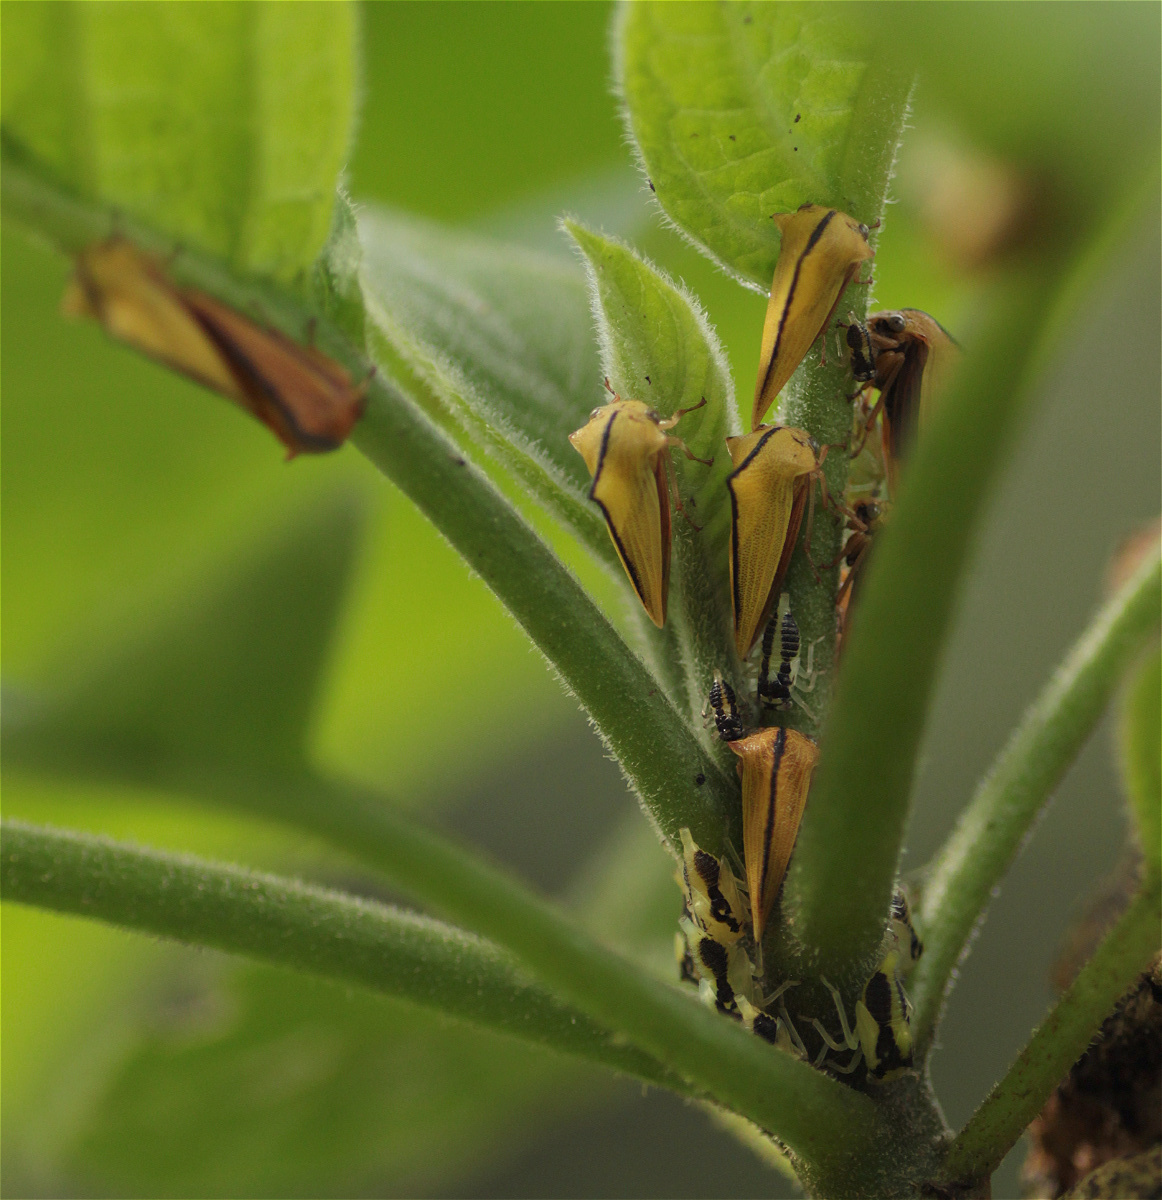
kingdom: Animalia
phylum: Arthropoda
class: Insecta
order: Hemiptera
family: Membracidae
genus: Ennya
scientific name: Ennya sobria
